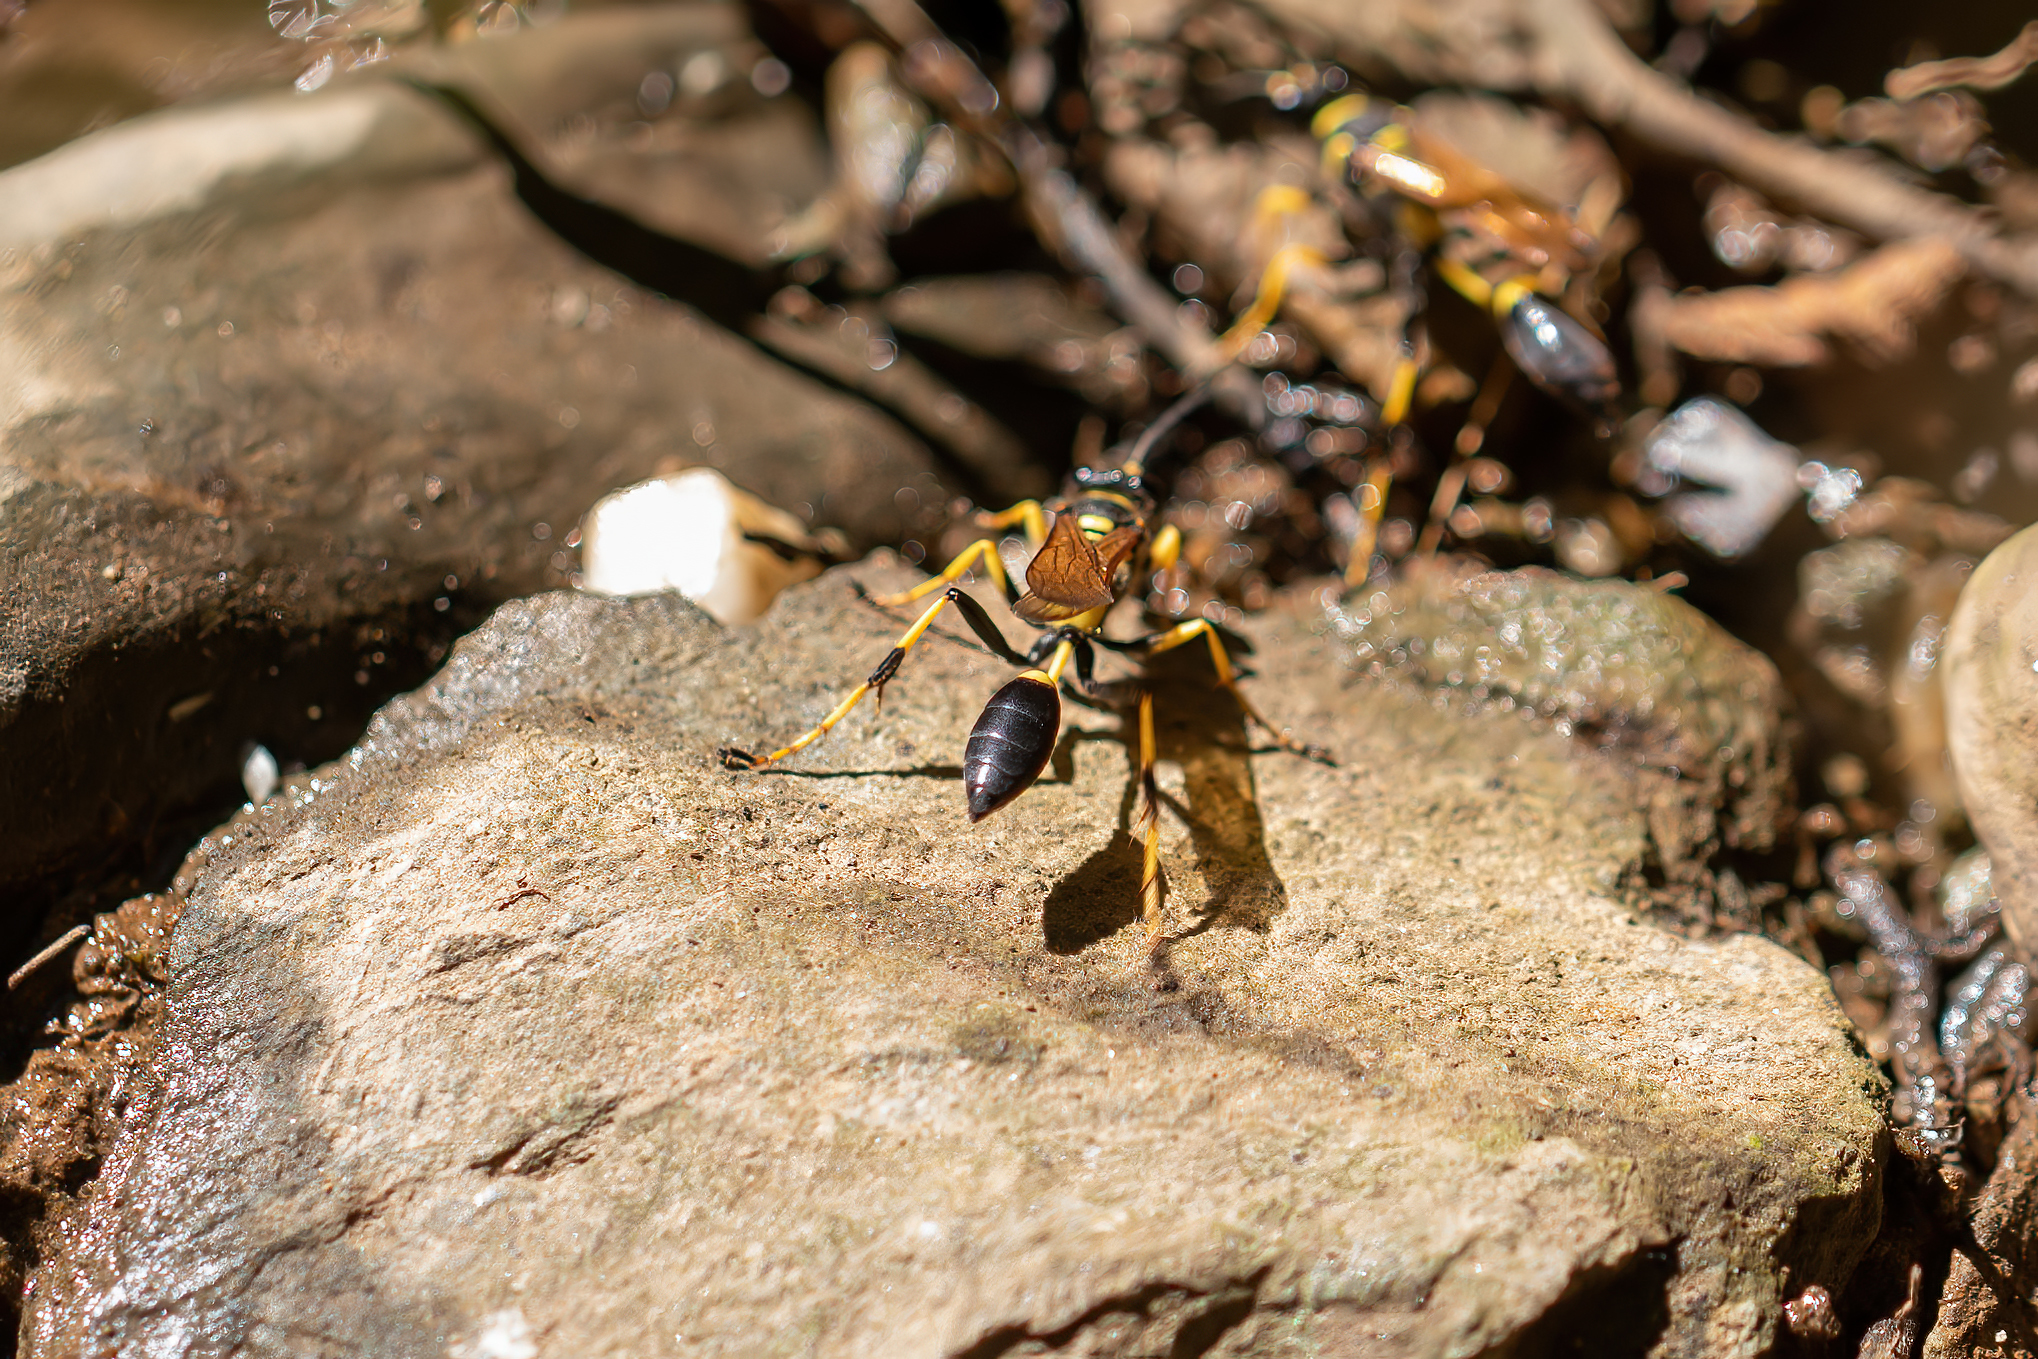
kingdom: Animalia
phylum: Arthropoda
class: Insecta
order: Hymenoptera
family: Sphecidae
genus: Sceliphron
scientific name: Sceliphron caementarium
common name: Mud dauber
